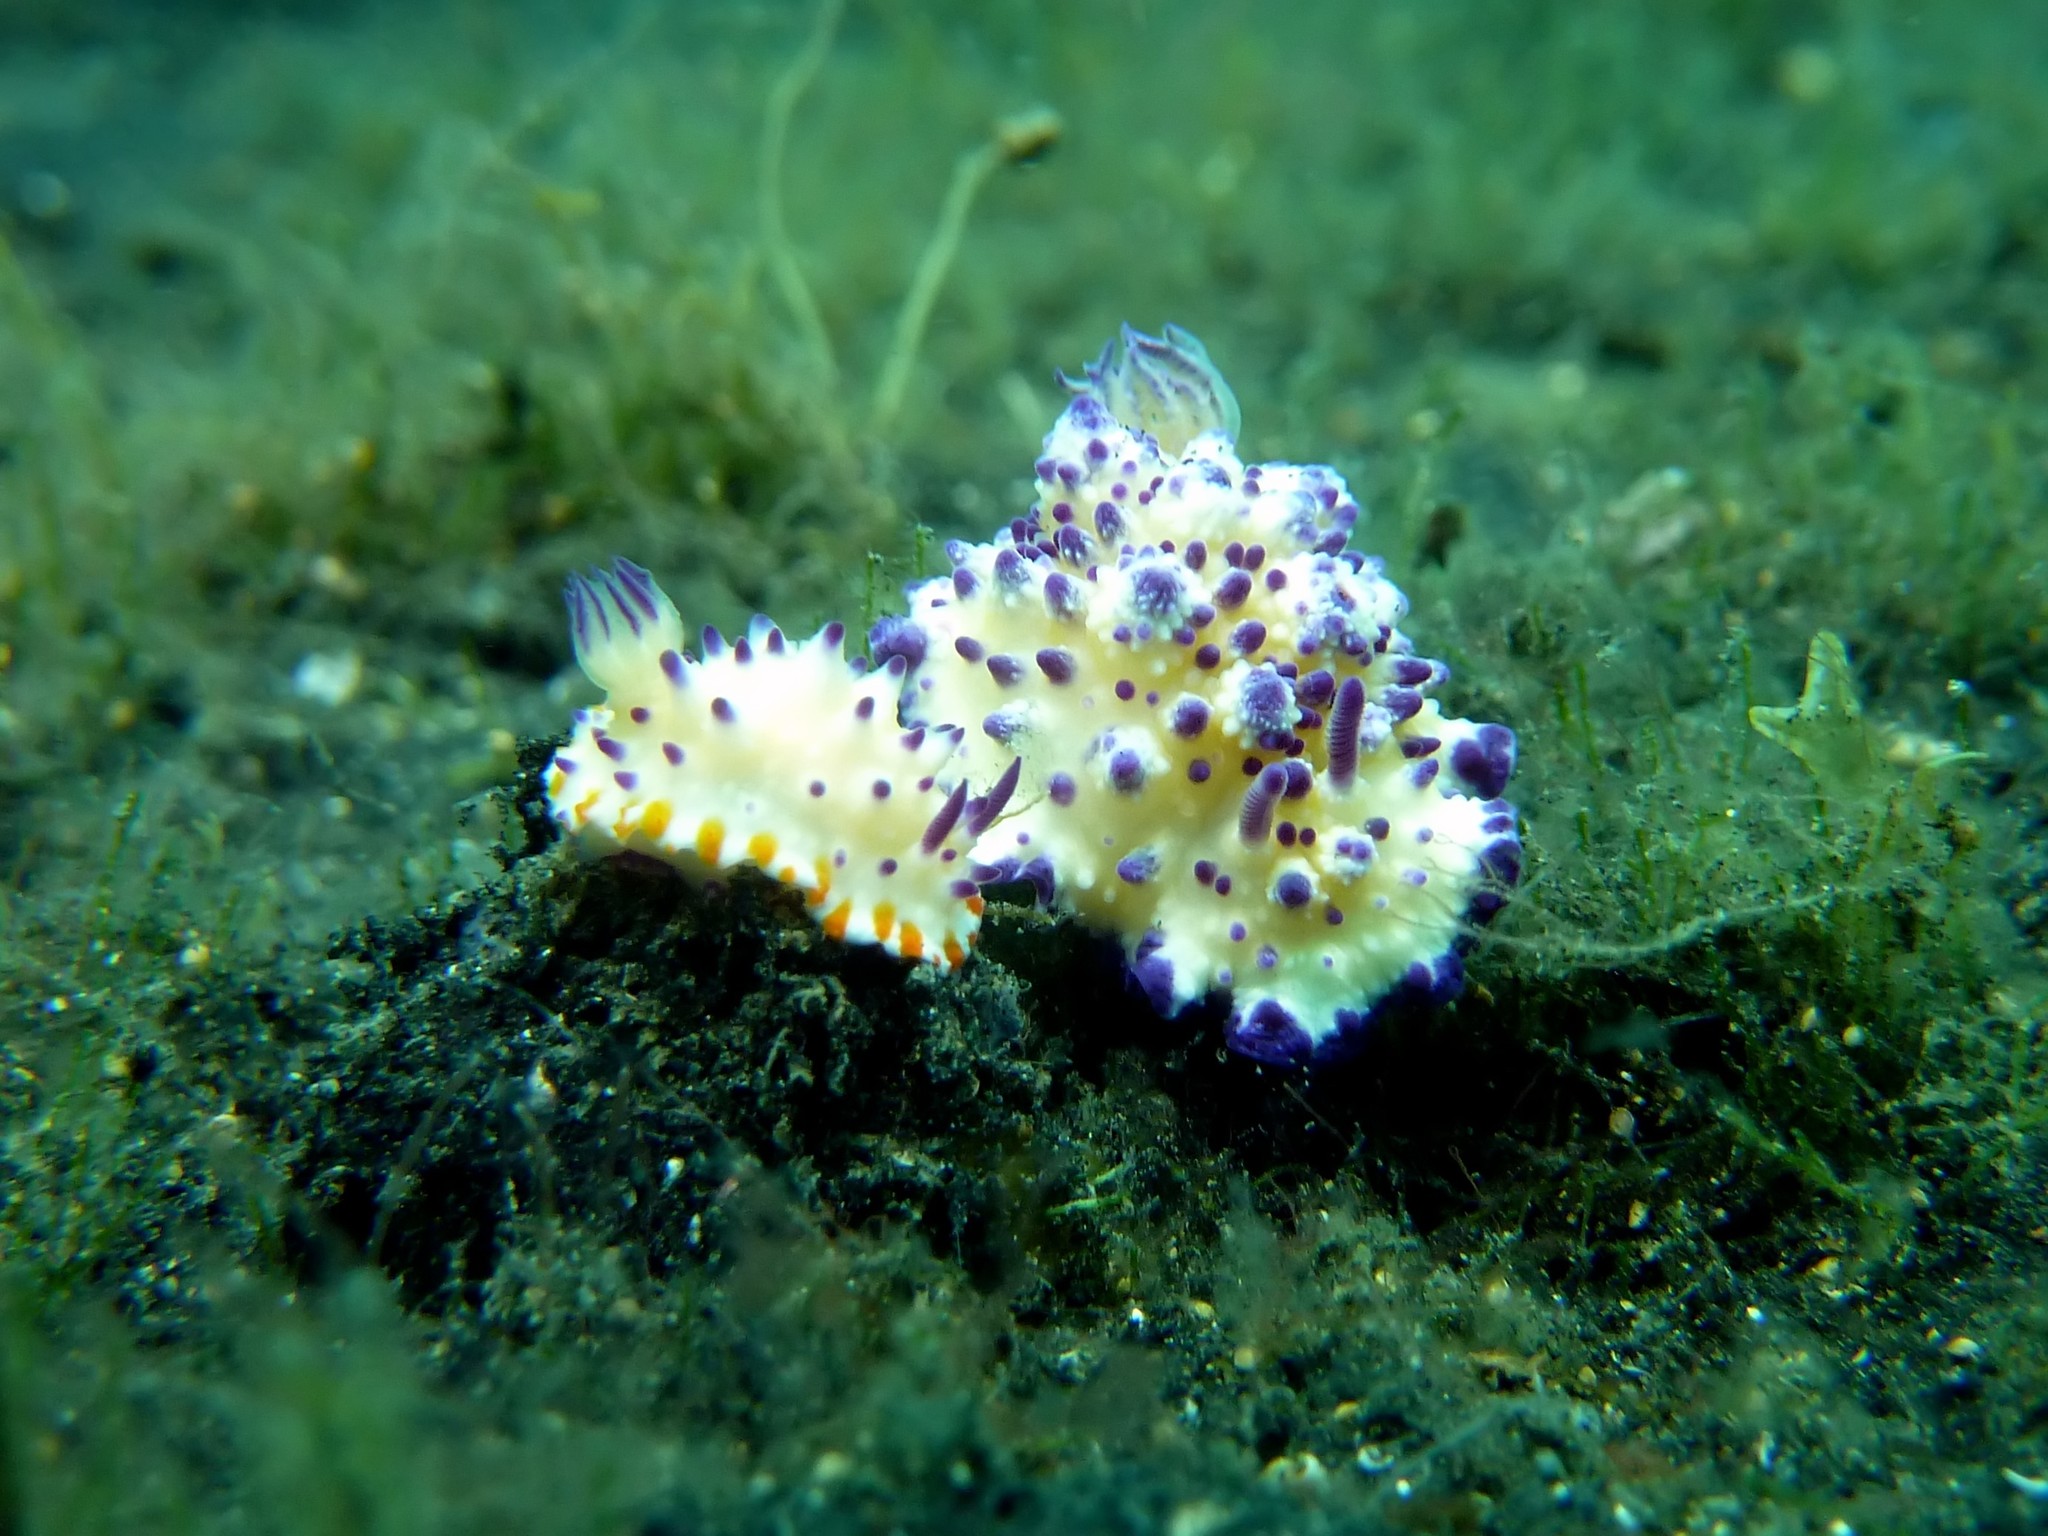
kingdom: Animalia
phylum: Mollusca
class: Gastropoda
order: Nudibranchia
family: Chromodorididae
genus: Mexichromis
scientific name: Mexichromis multituberculata
